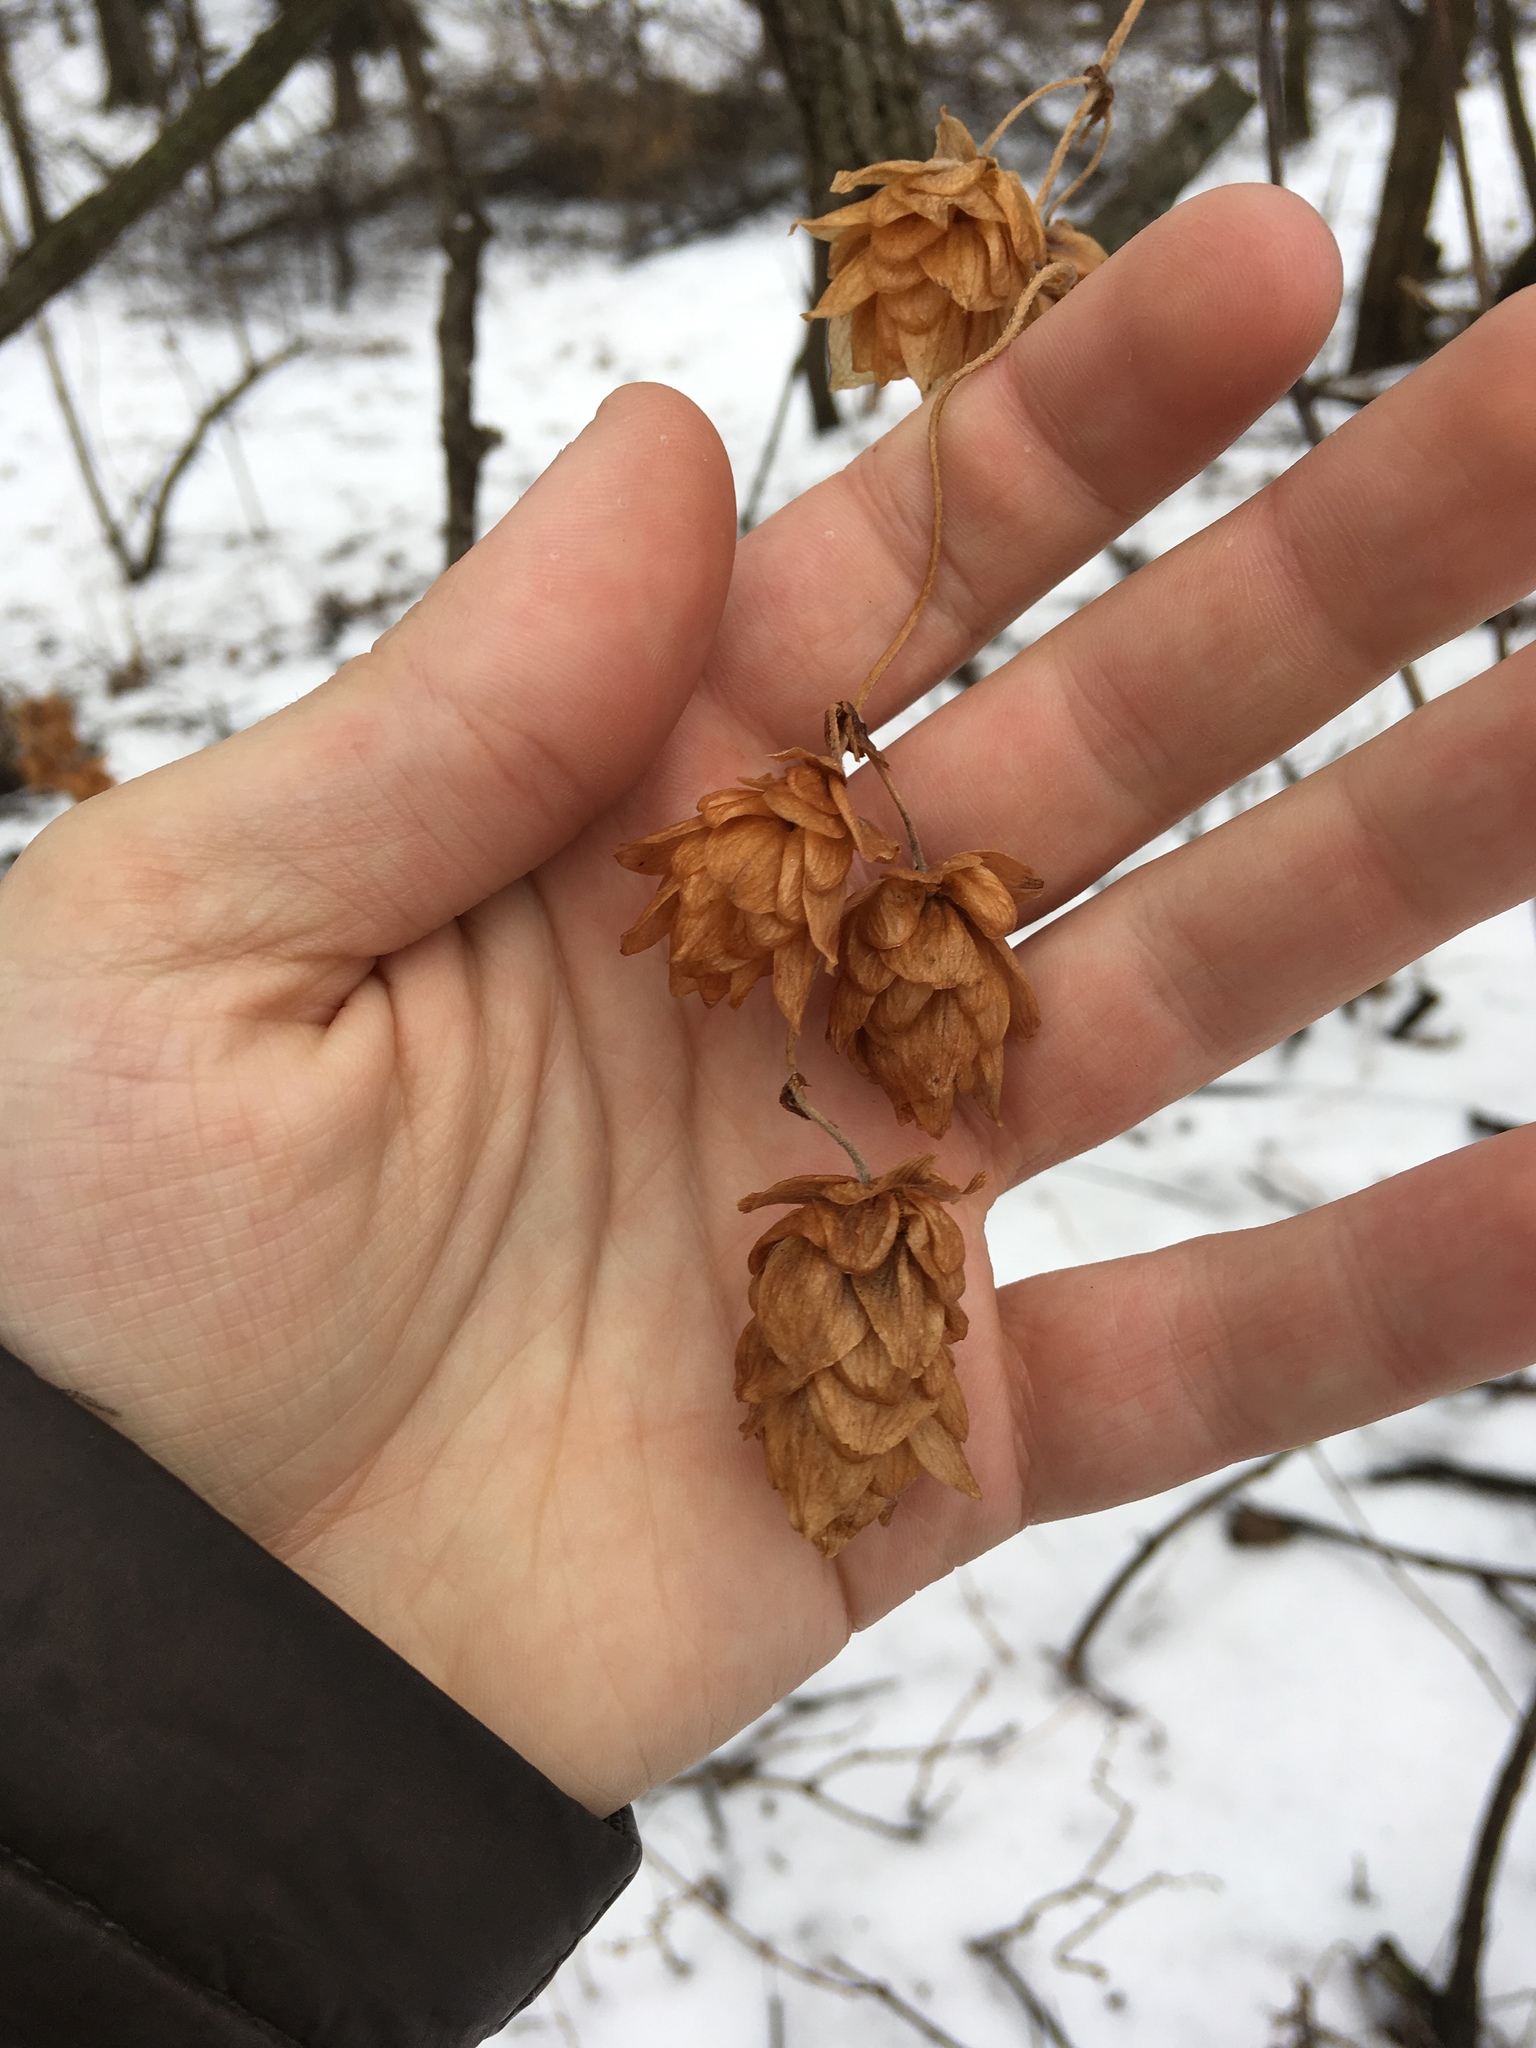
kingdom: Plantae
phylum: Tracheophyta
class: Magnoliopsida
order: Rosales
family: Cannabaceae
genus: Humulus
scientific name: Humulus lupulus
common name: Hop
